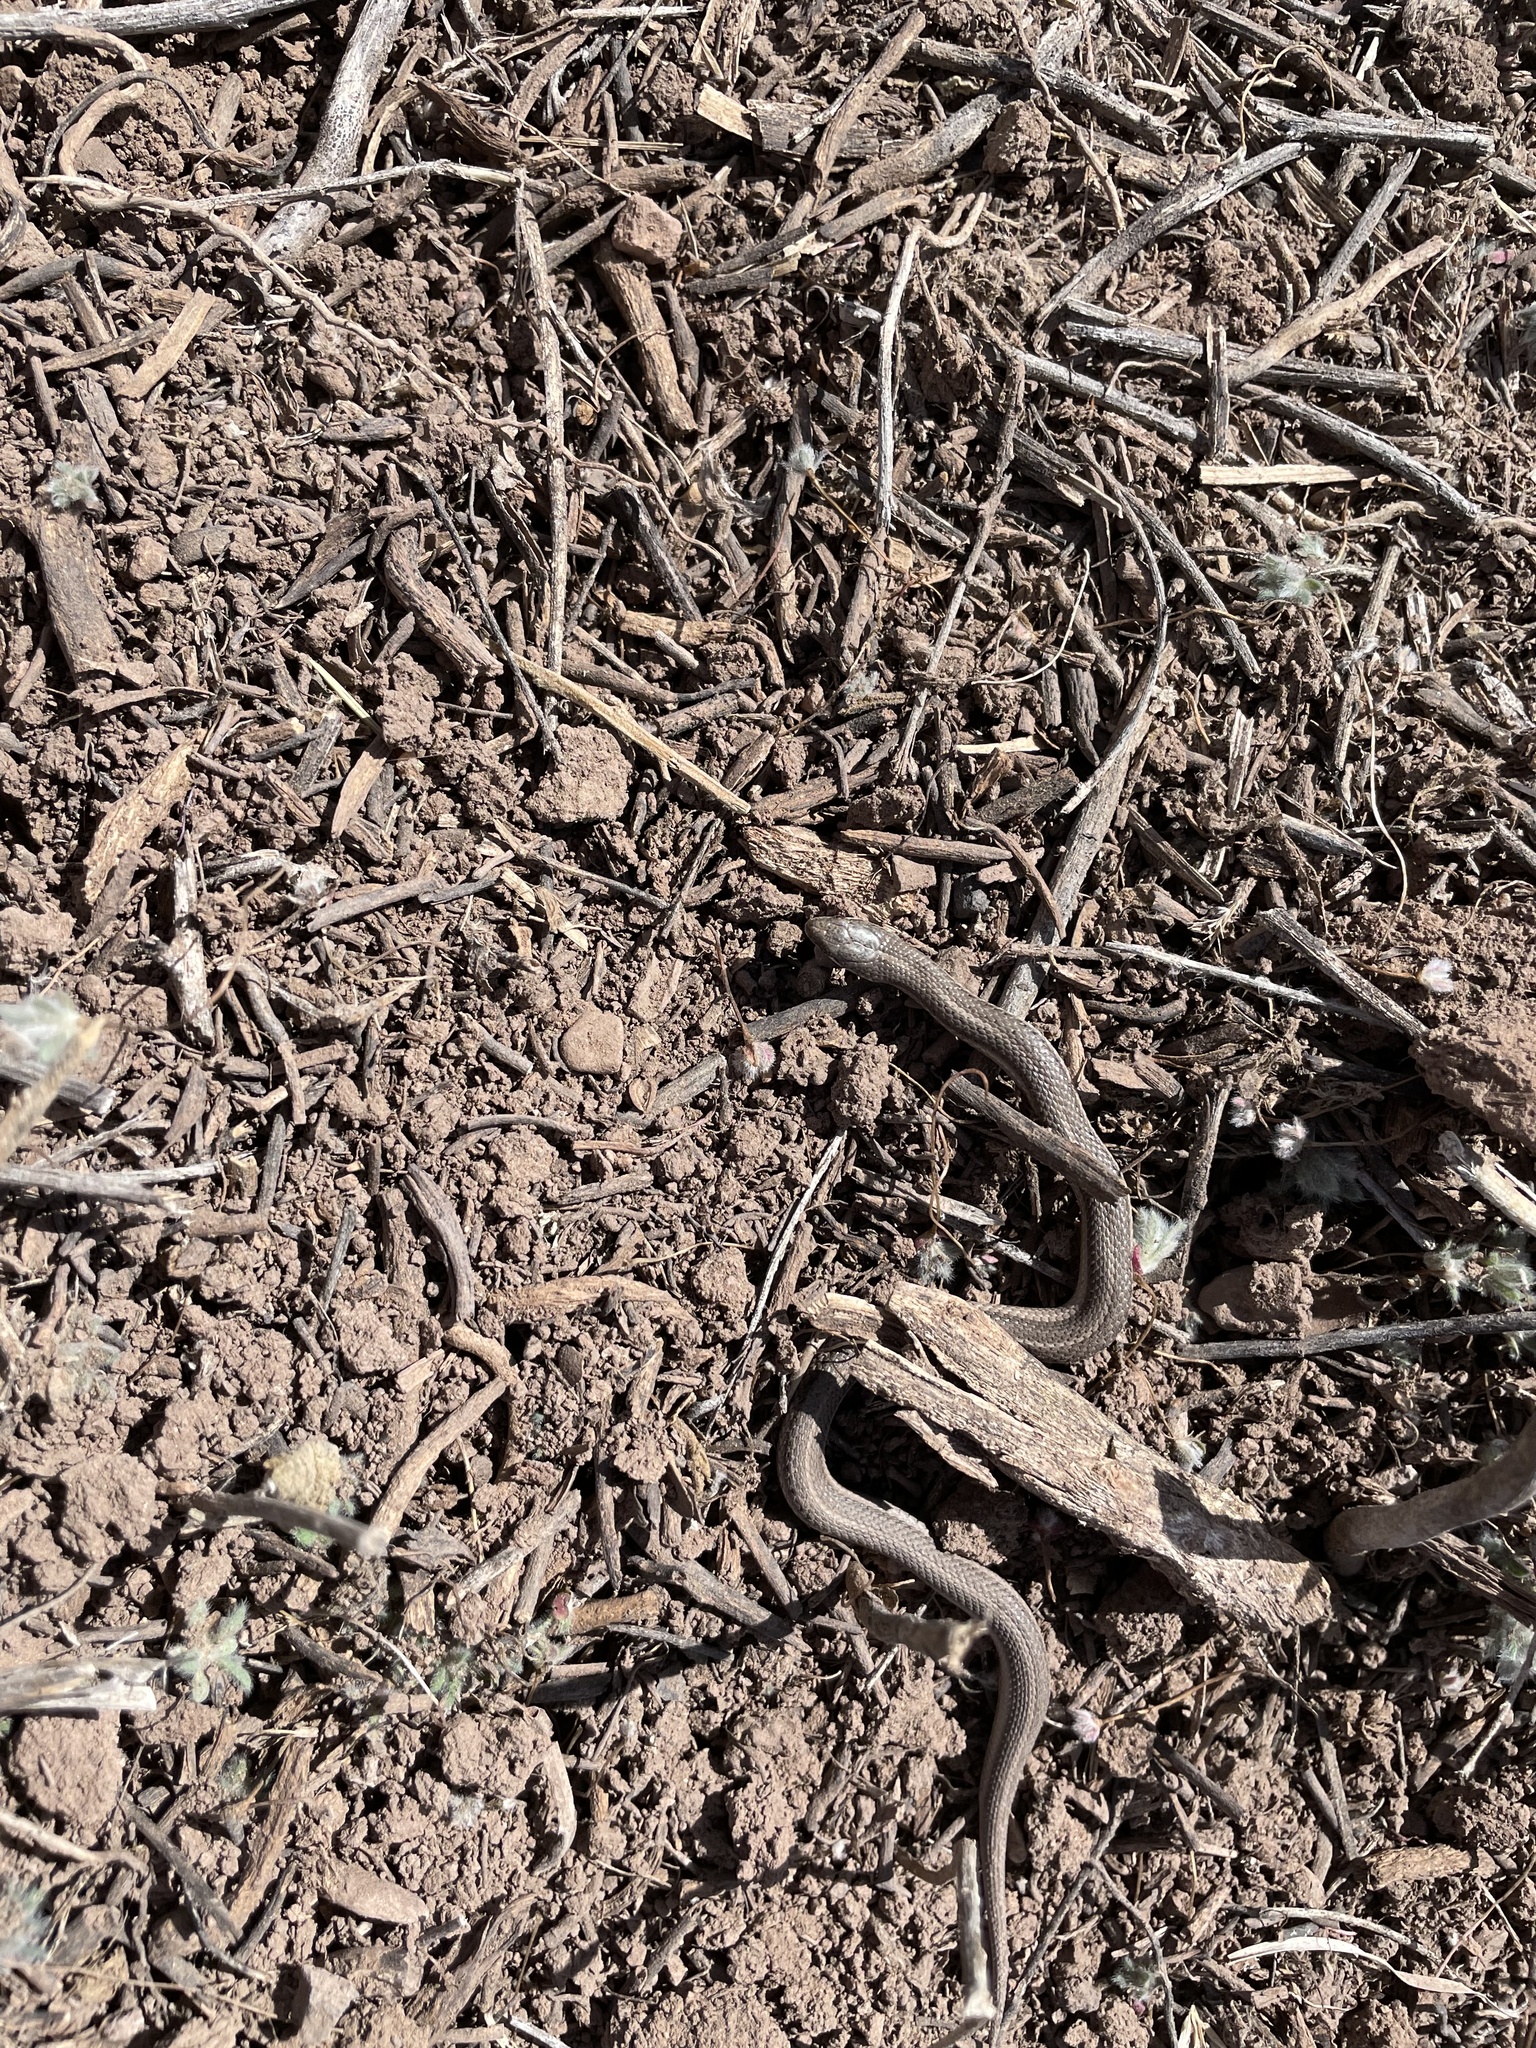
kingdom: Animalia
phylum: Chordata
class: Squamata
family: Colubridae
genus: Tropidoclonion
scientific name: Tropidoclonion lineatum
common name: Lined snake
